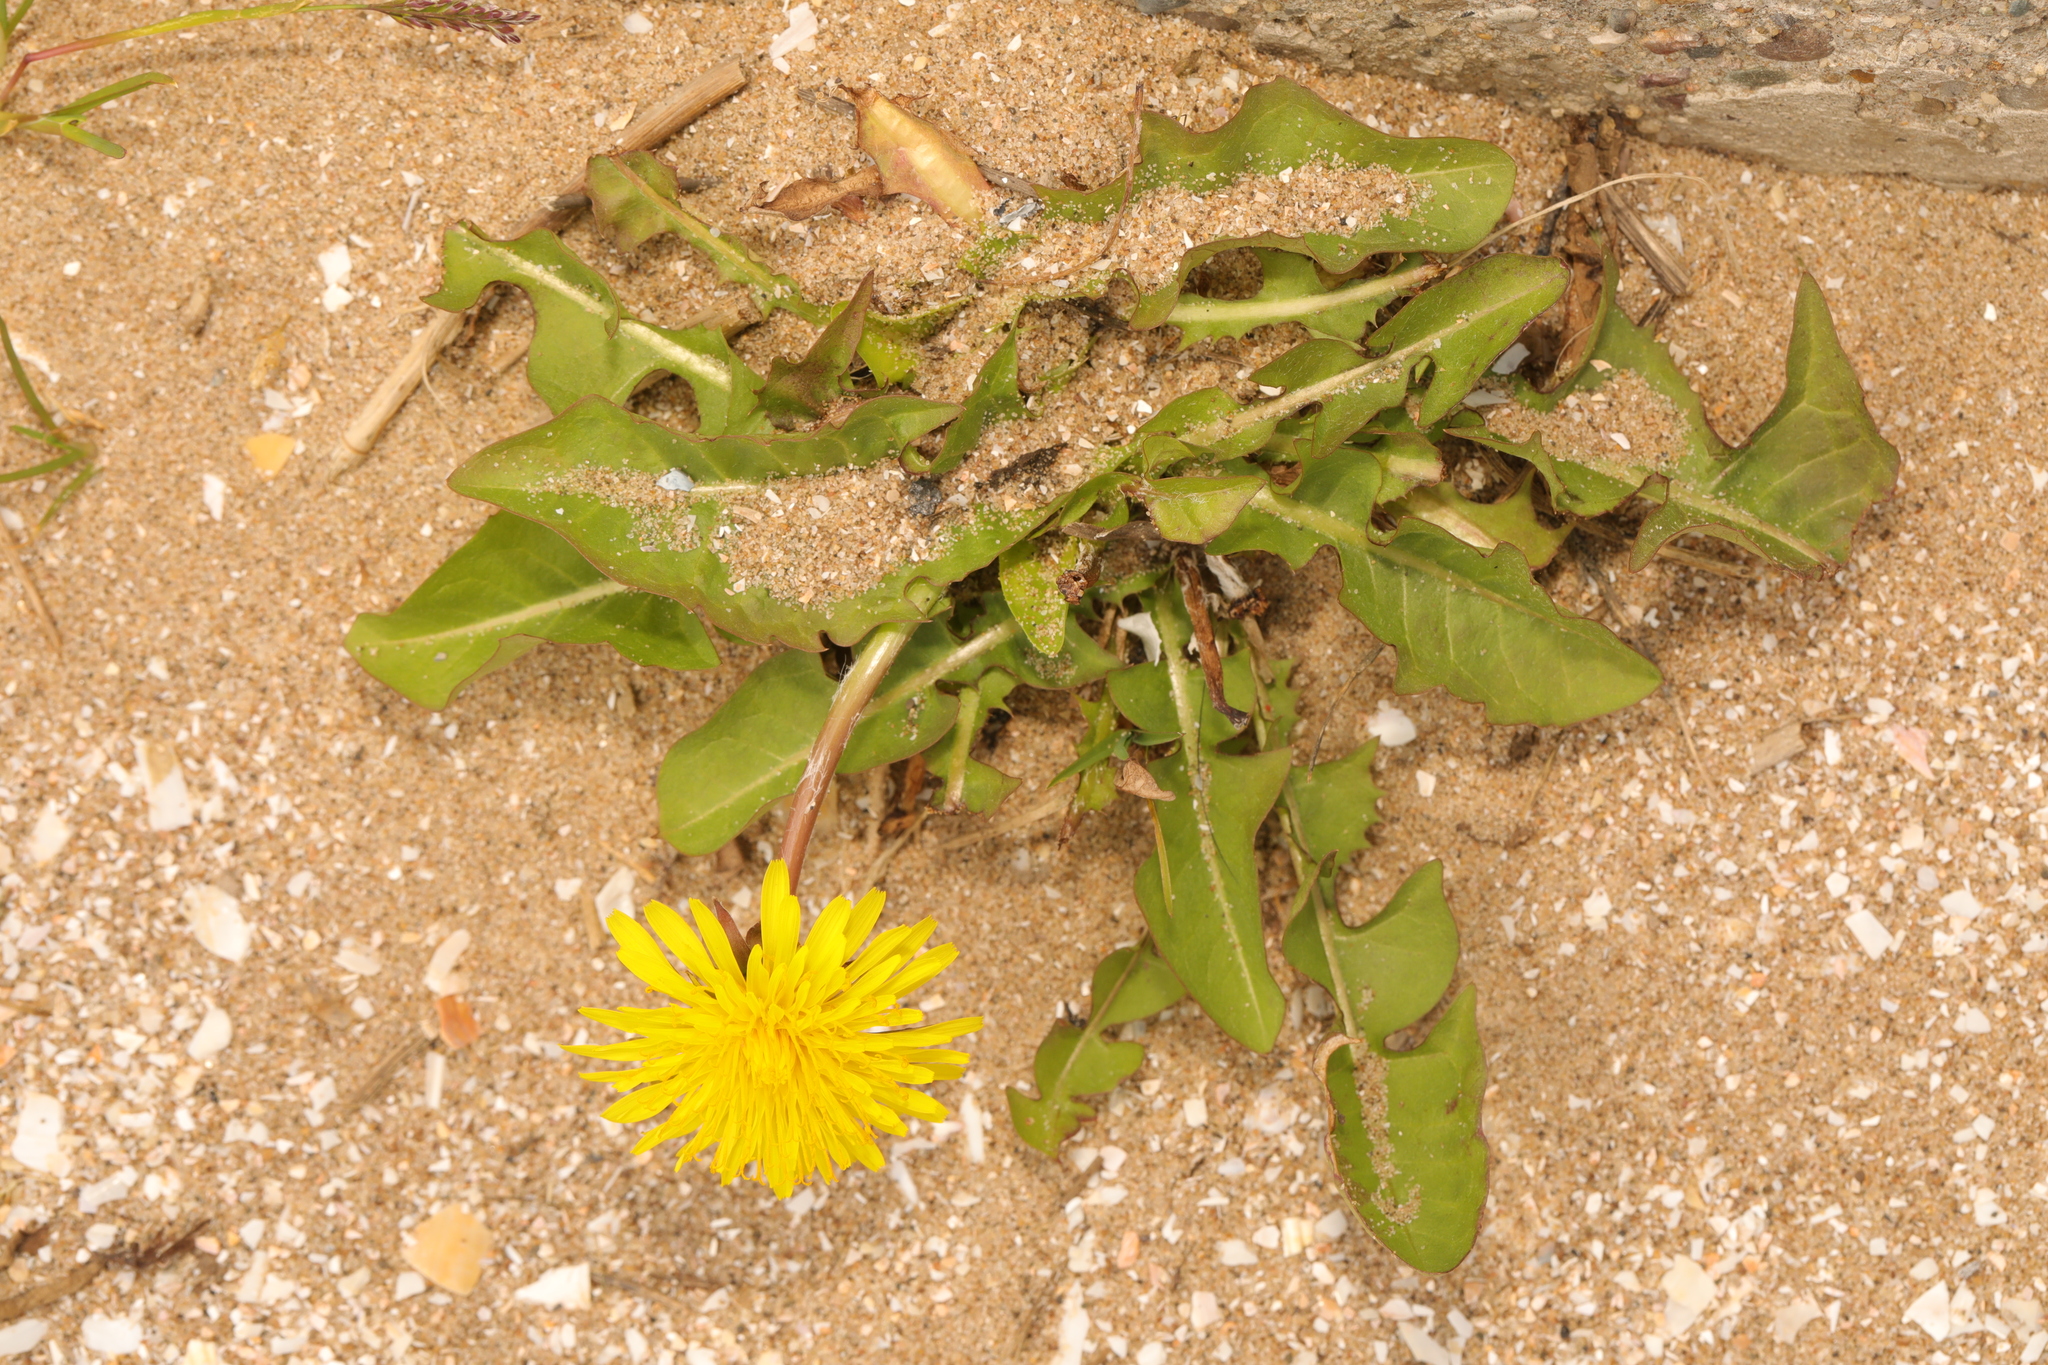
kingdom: Plantae
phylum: Tracheophyta
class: Magnoliopsida
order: Asterales
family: Asteraceae
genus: Taraxacum
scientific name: Taraxacum officinale
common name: Common dandelion
